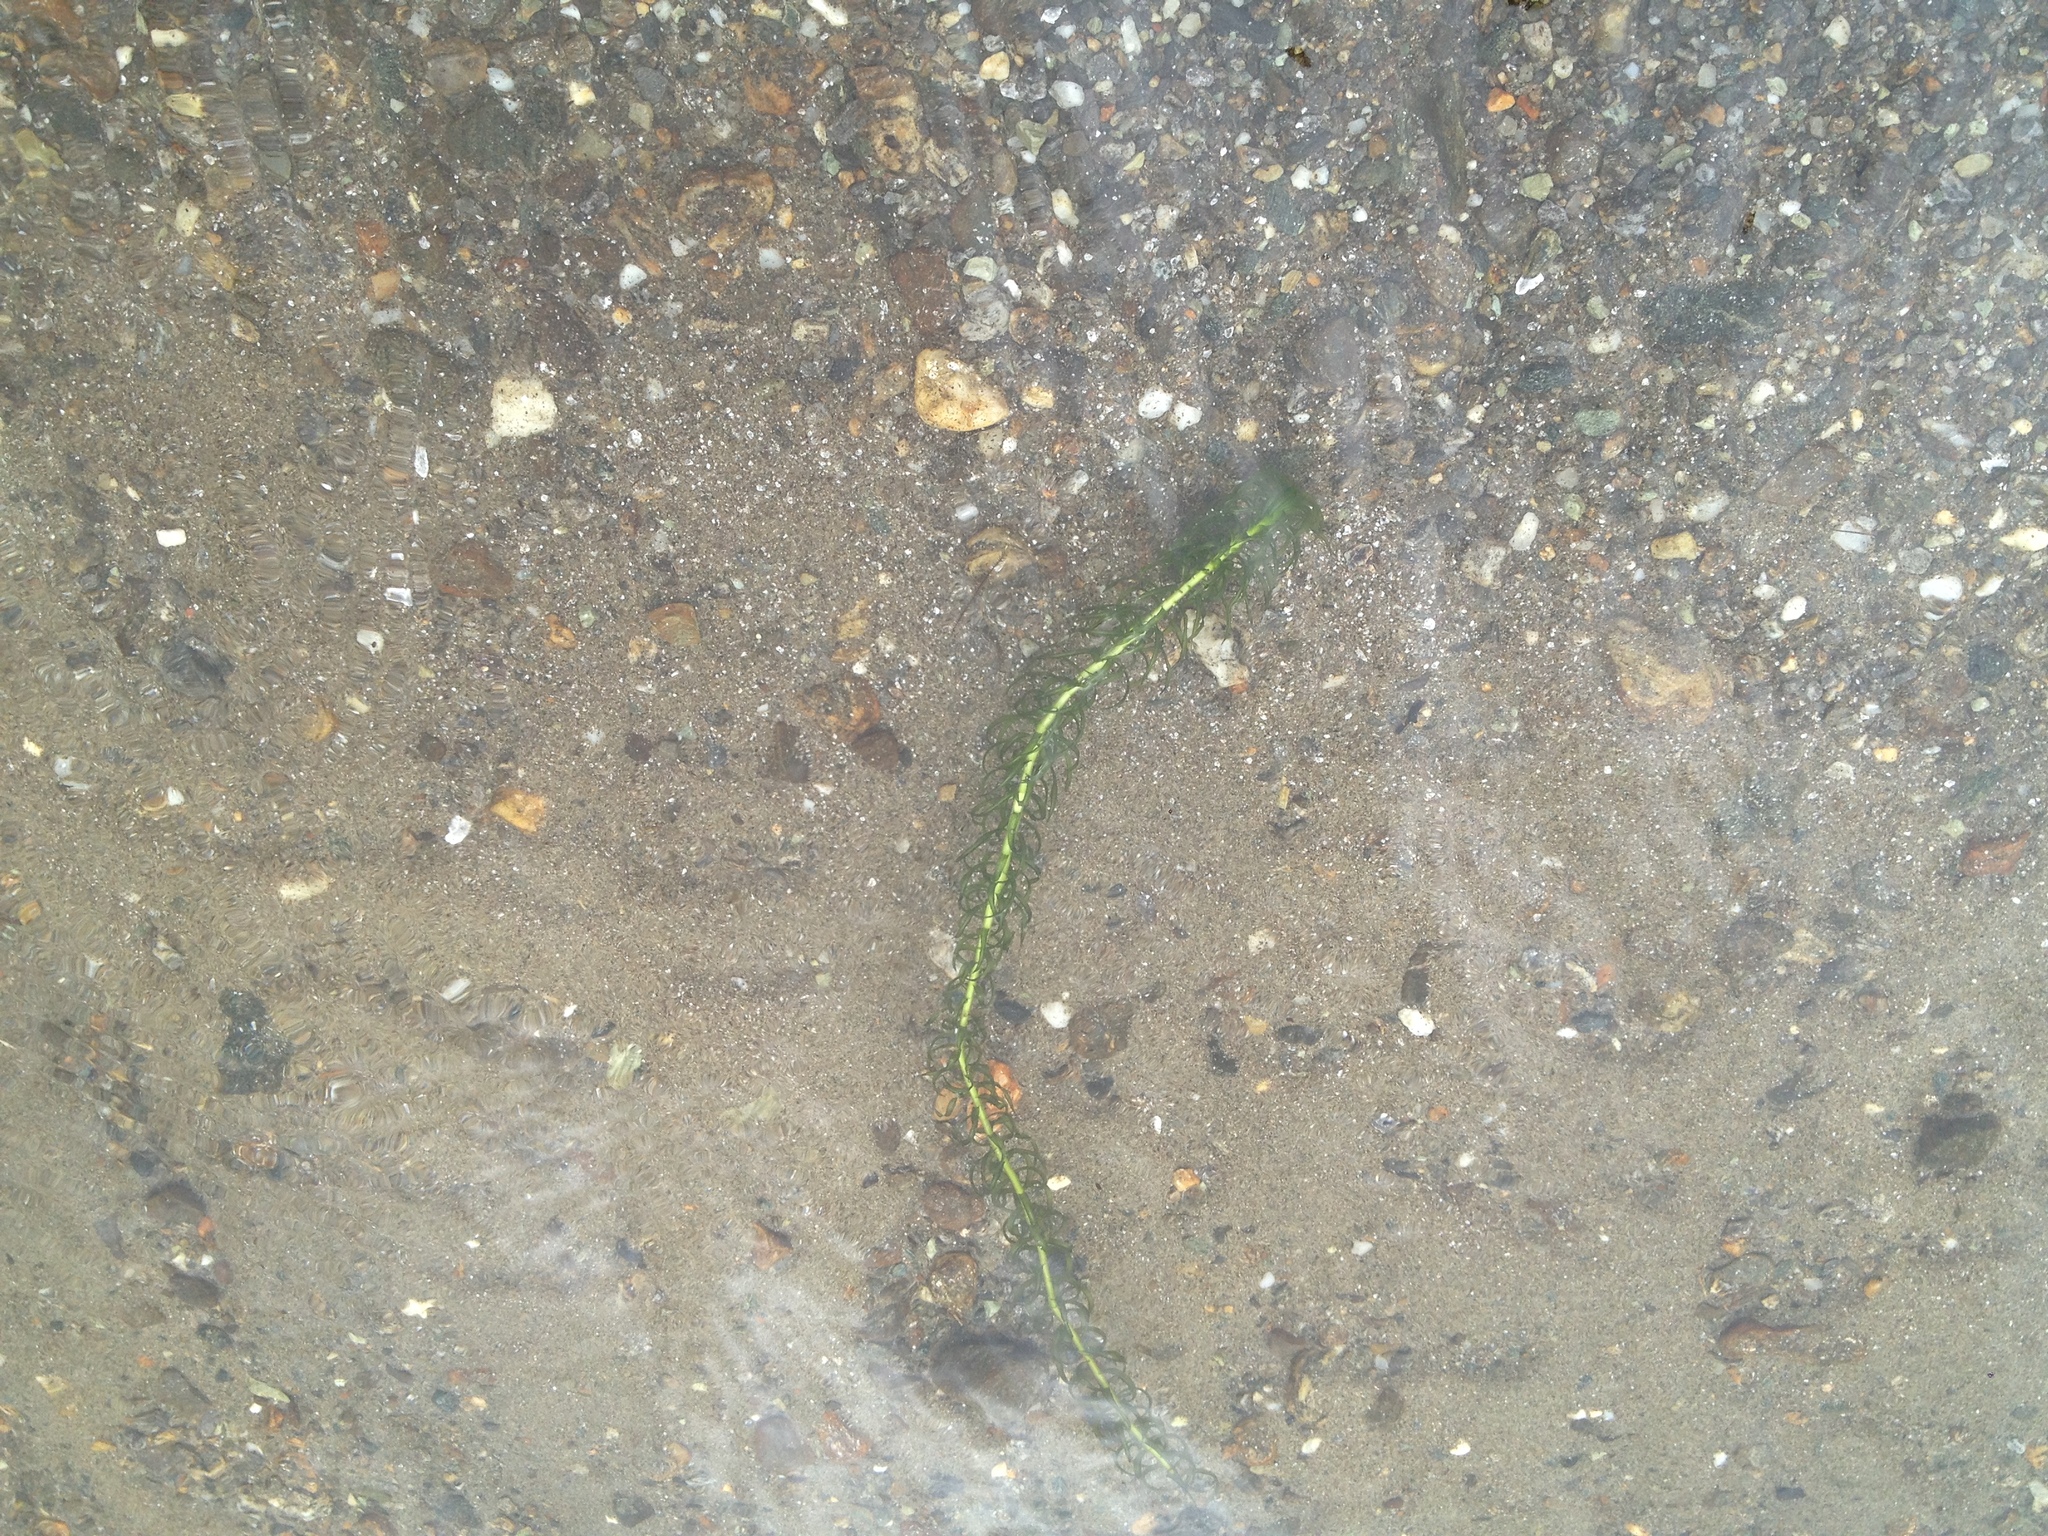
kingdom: Plantae
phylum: Tracheophyta
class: Liliopsida
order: Alismatales
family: Hydrocharitaceae
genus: Lagarosiphon
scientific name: Lagarosiphon major
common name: Curly waterweed
